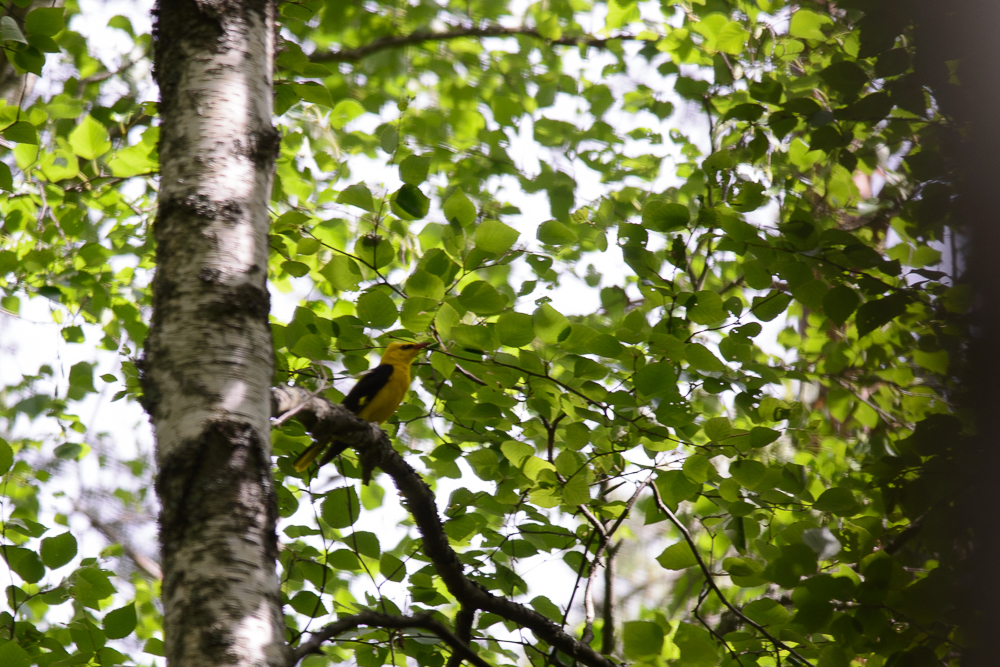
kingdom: Animalia
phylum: Chordata
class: Aves
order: Passeriformes
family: Oriolidae
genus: Oriolus
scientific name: Oriolus oriolus
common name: Eurasian golden oriole
